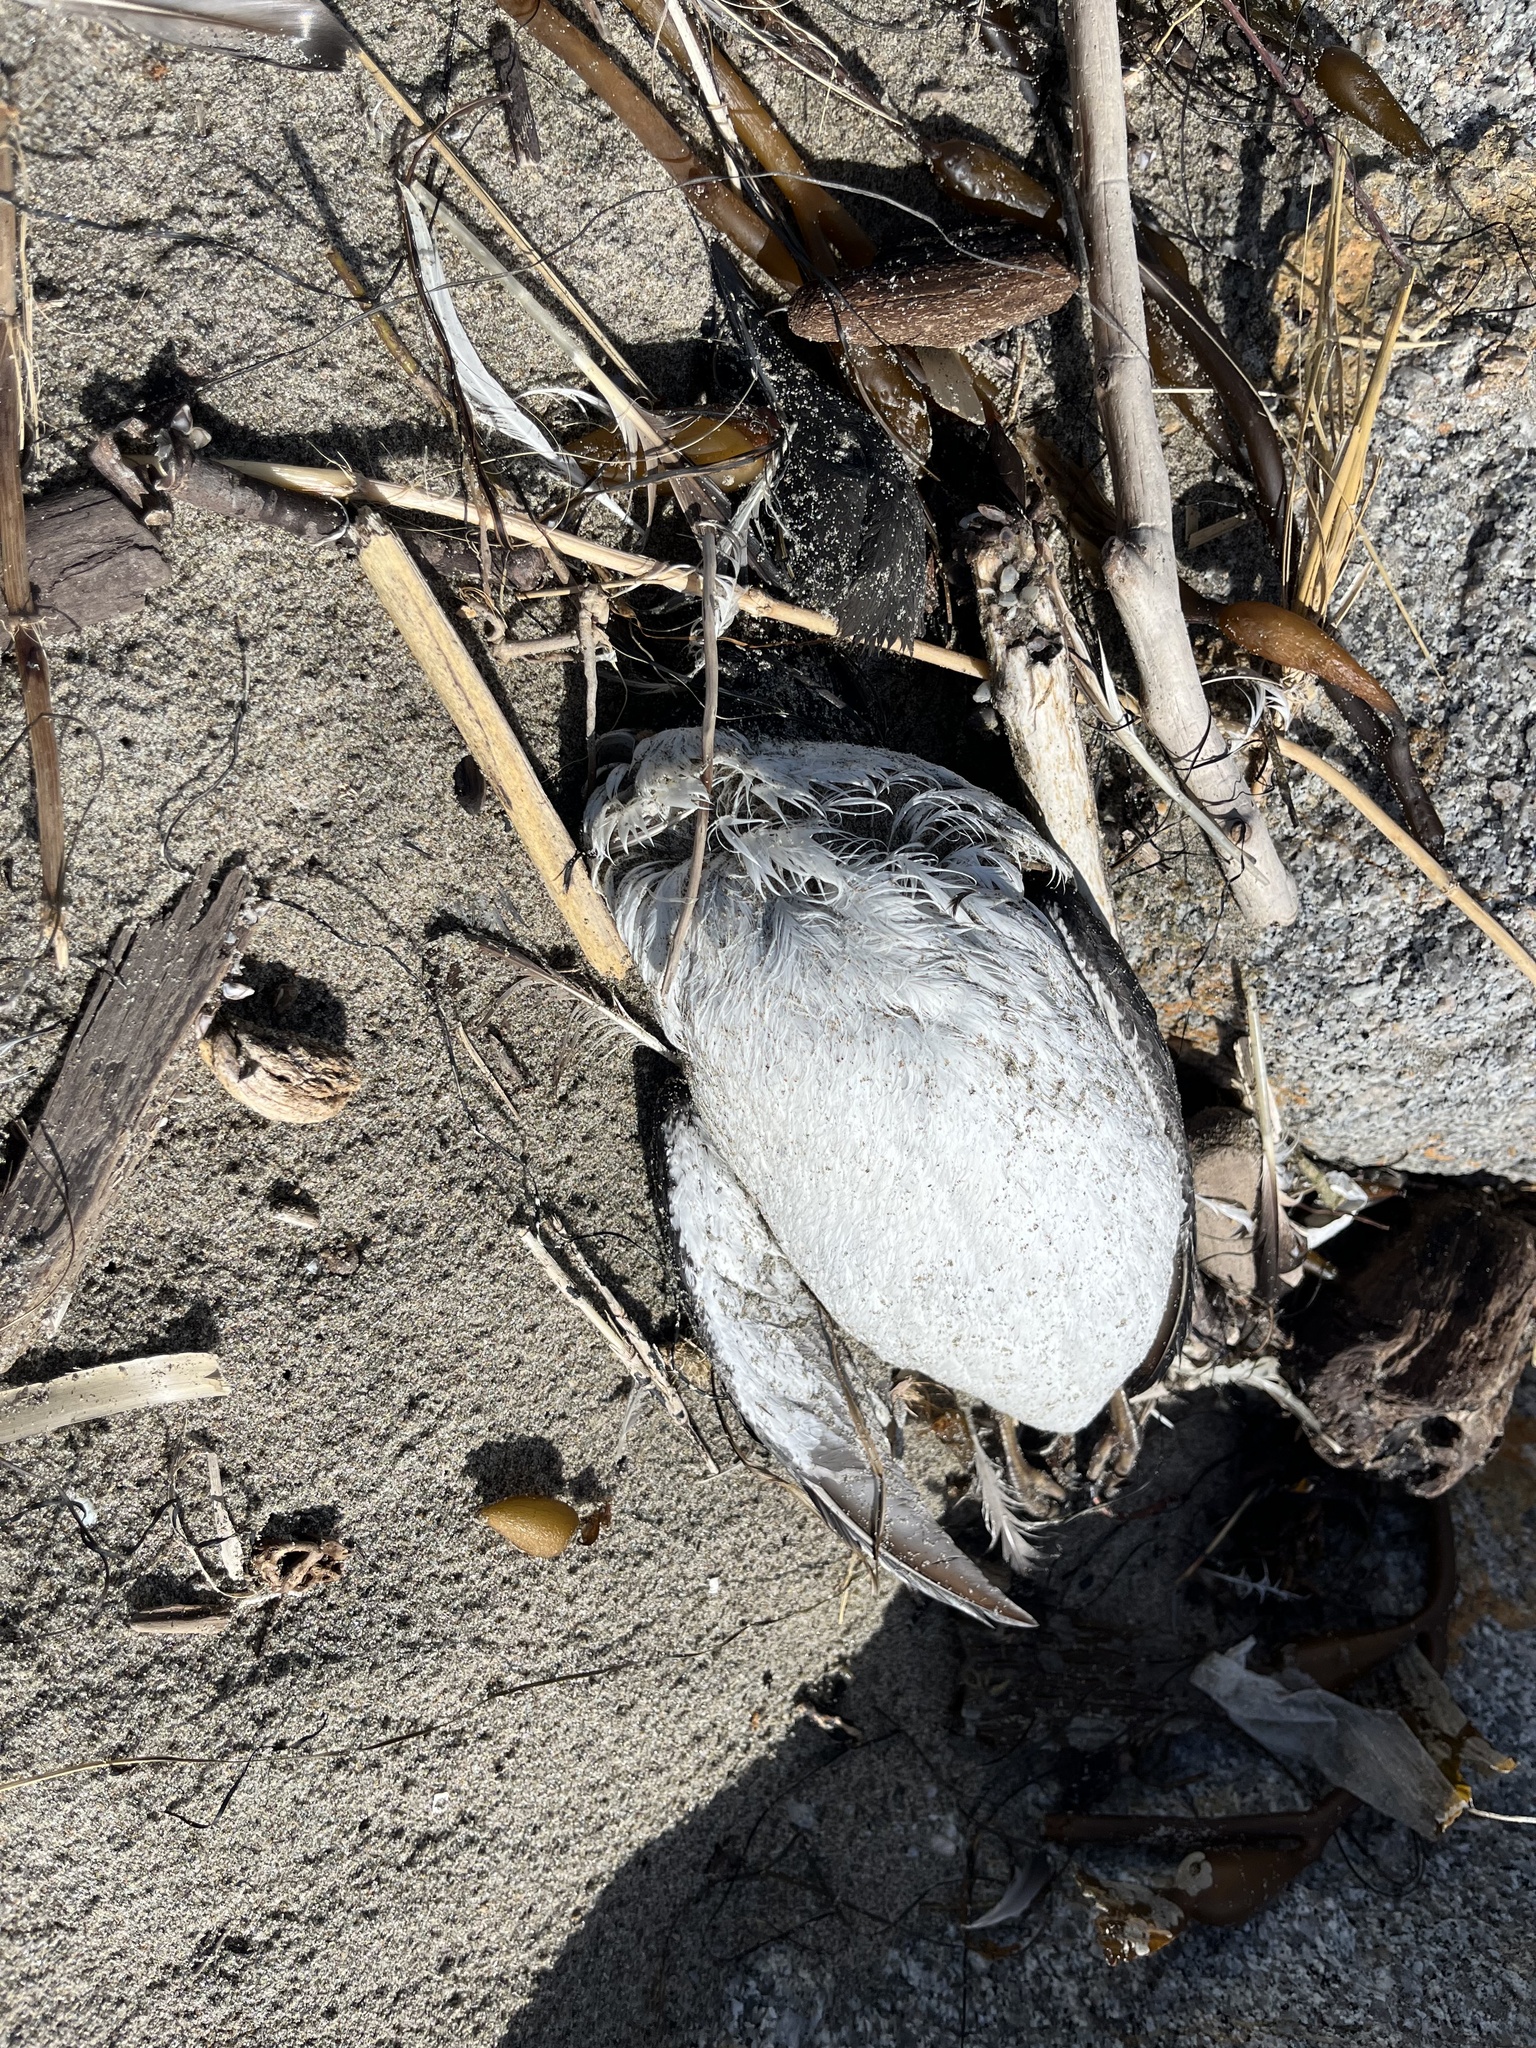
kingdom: Animalia
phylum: Chordata
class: Aves
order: Charadriiformes
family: Alcidae
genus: Uria
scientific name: Uria aalge
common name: Common murre
